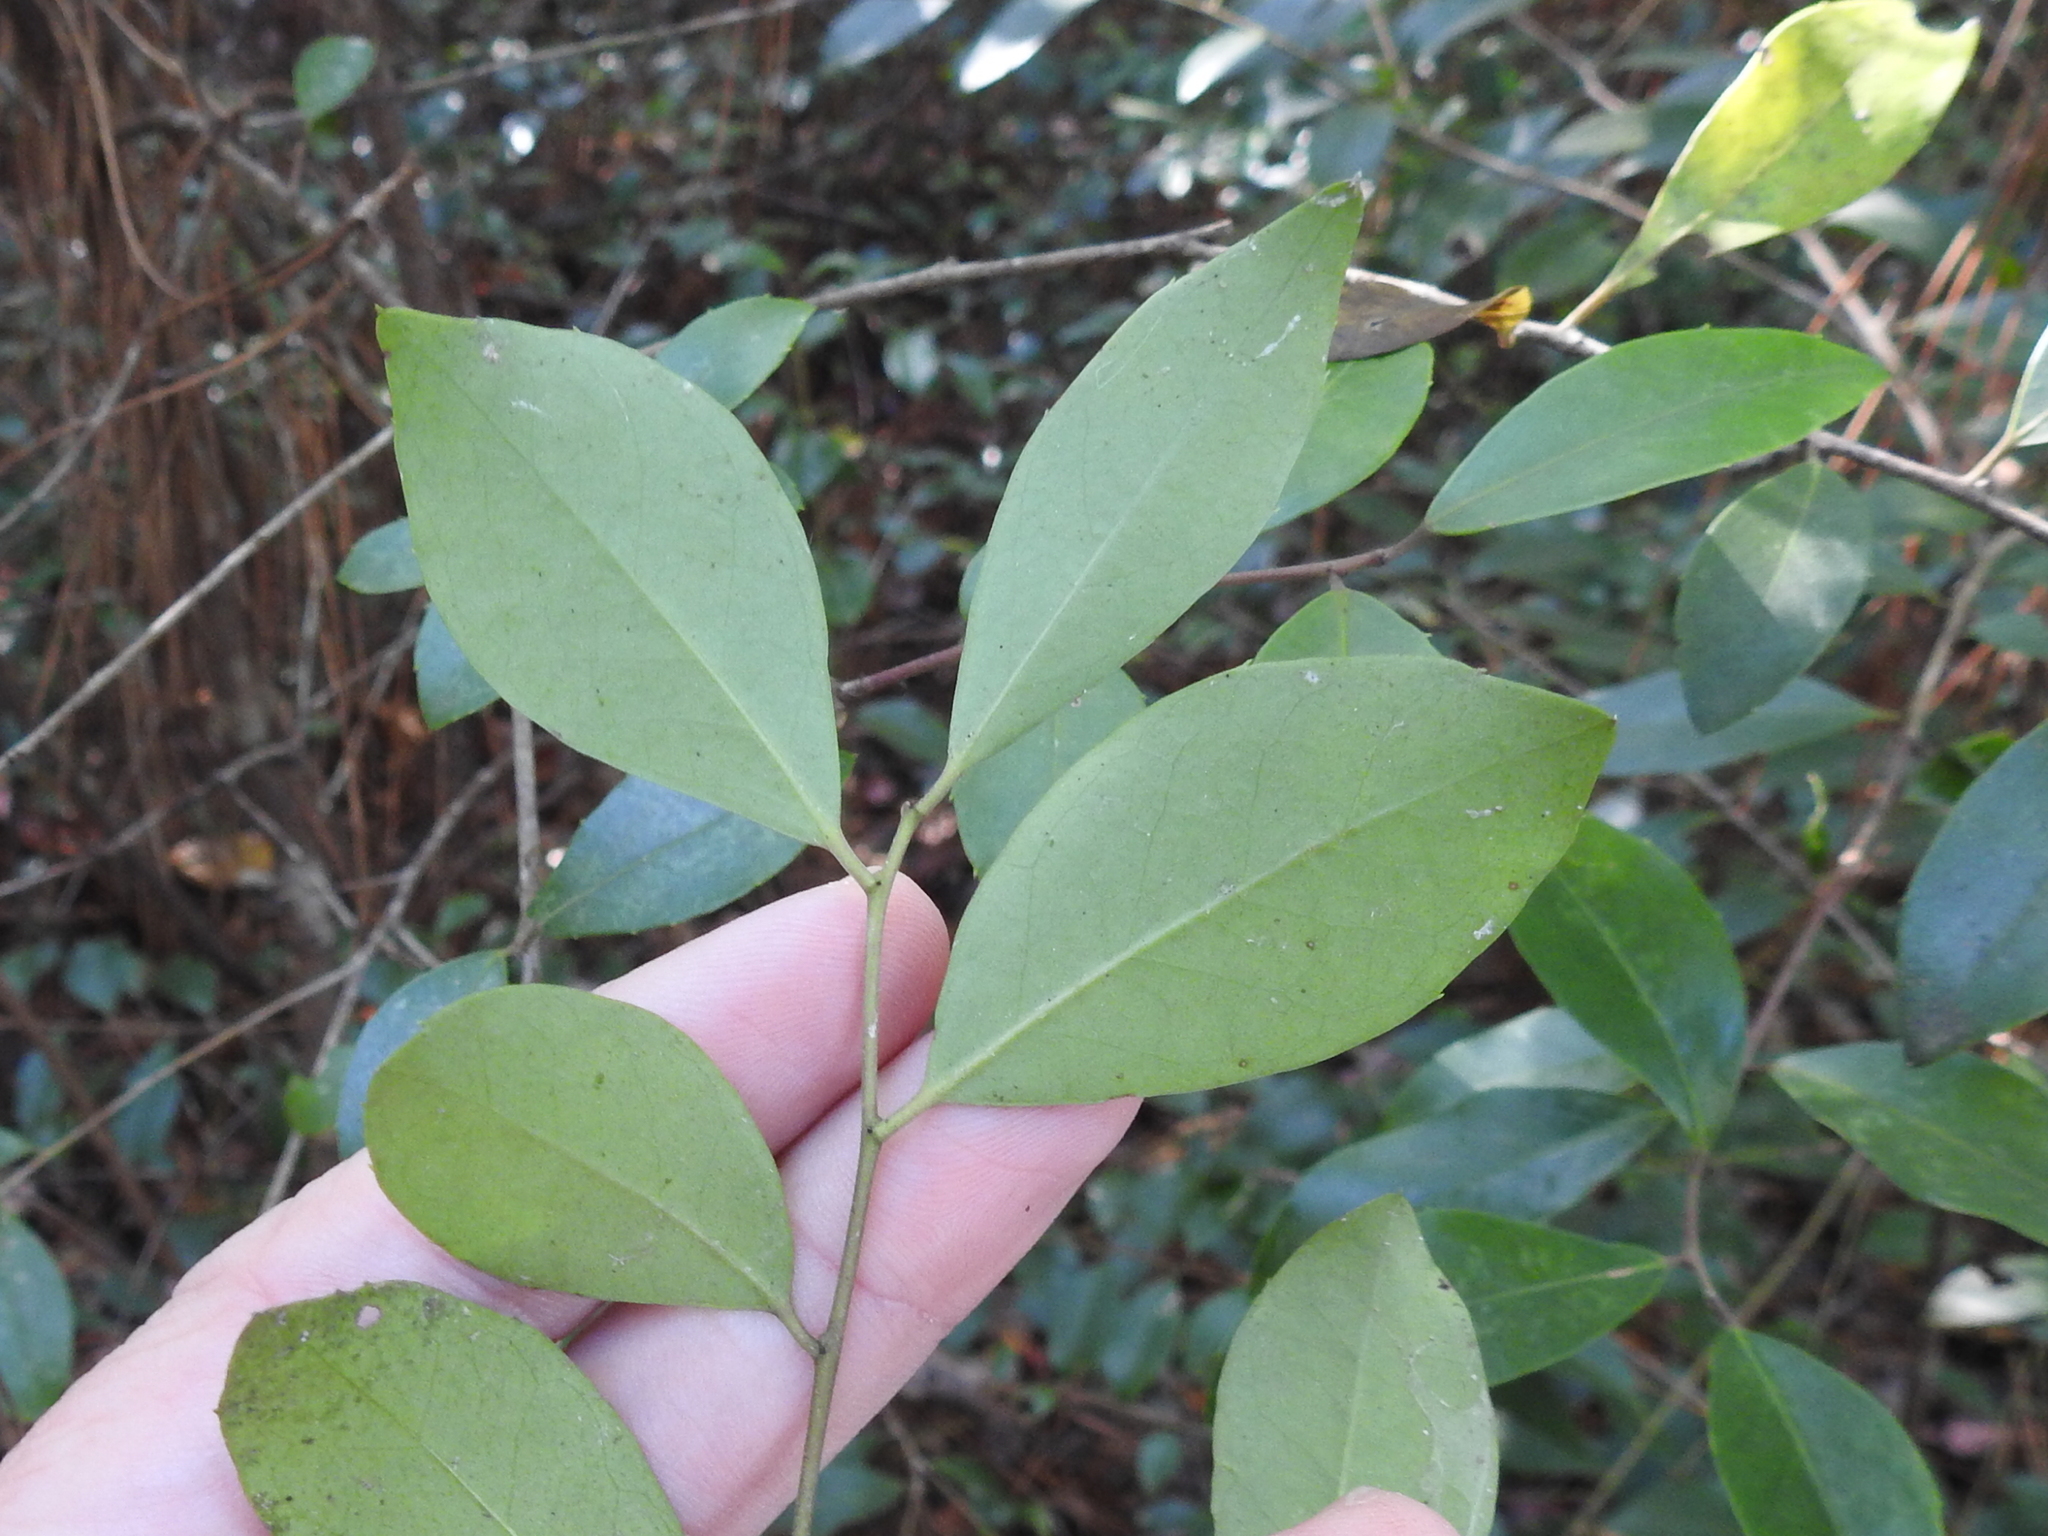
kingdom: Plantae
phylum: Tracheophyta
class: Magnoliopsida
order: Aquifoliales
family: Aquifoliaceae
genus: Ilex
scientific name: Ilex coriacea
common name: Sweet gallberry
